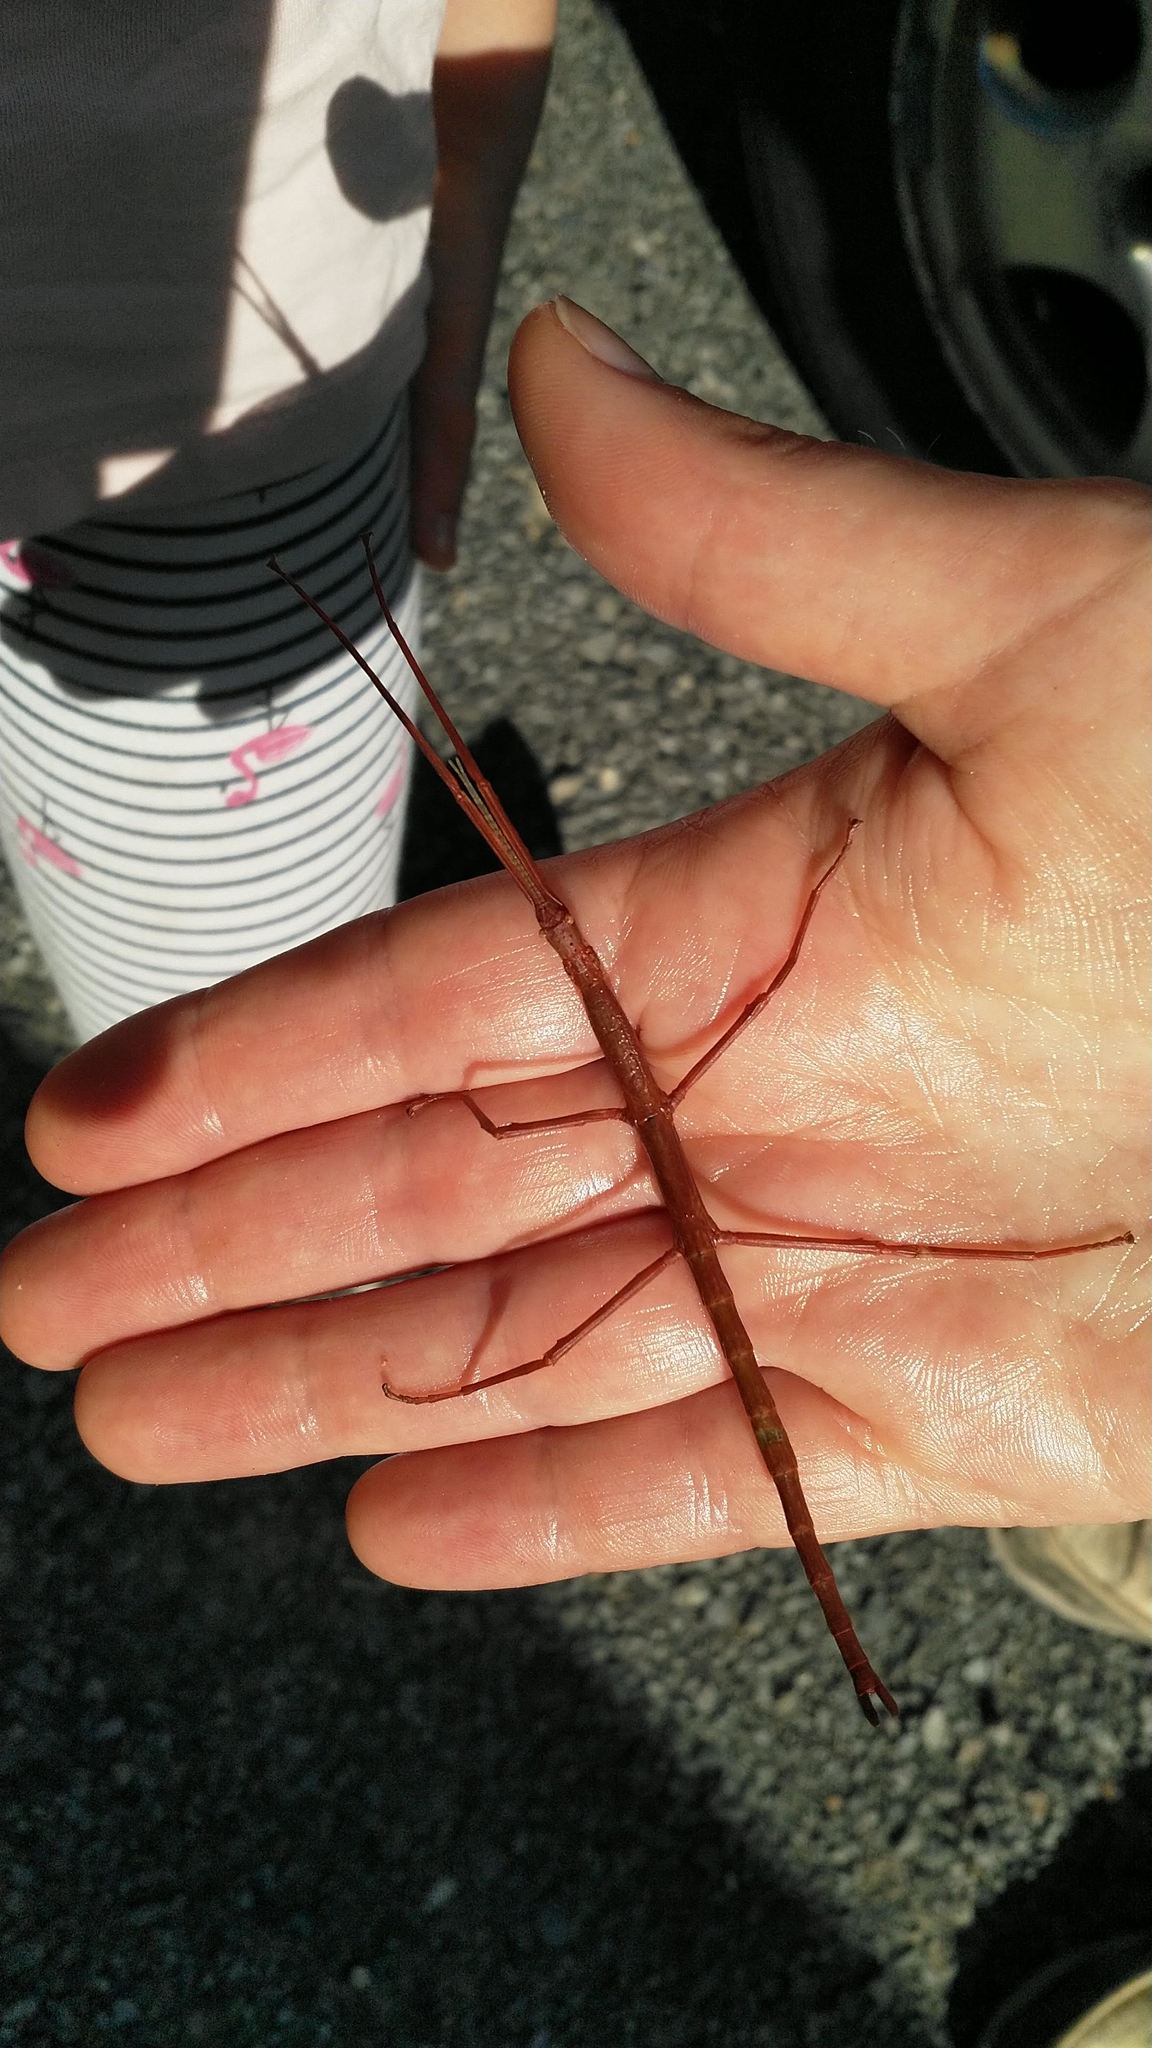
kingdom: Animalia
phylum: Arthropoda
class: Insecta
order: Phasmida
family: Phasmatidae
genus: Acanthoxyla
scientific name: Acanthoxyla inermis
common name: Unarmed stick insect
